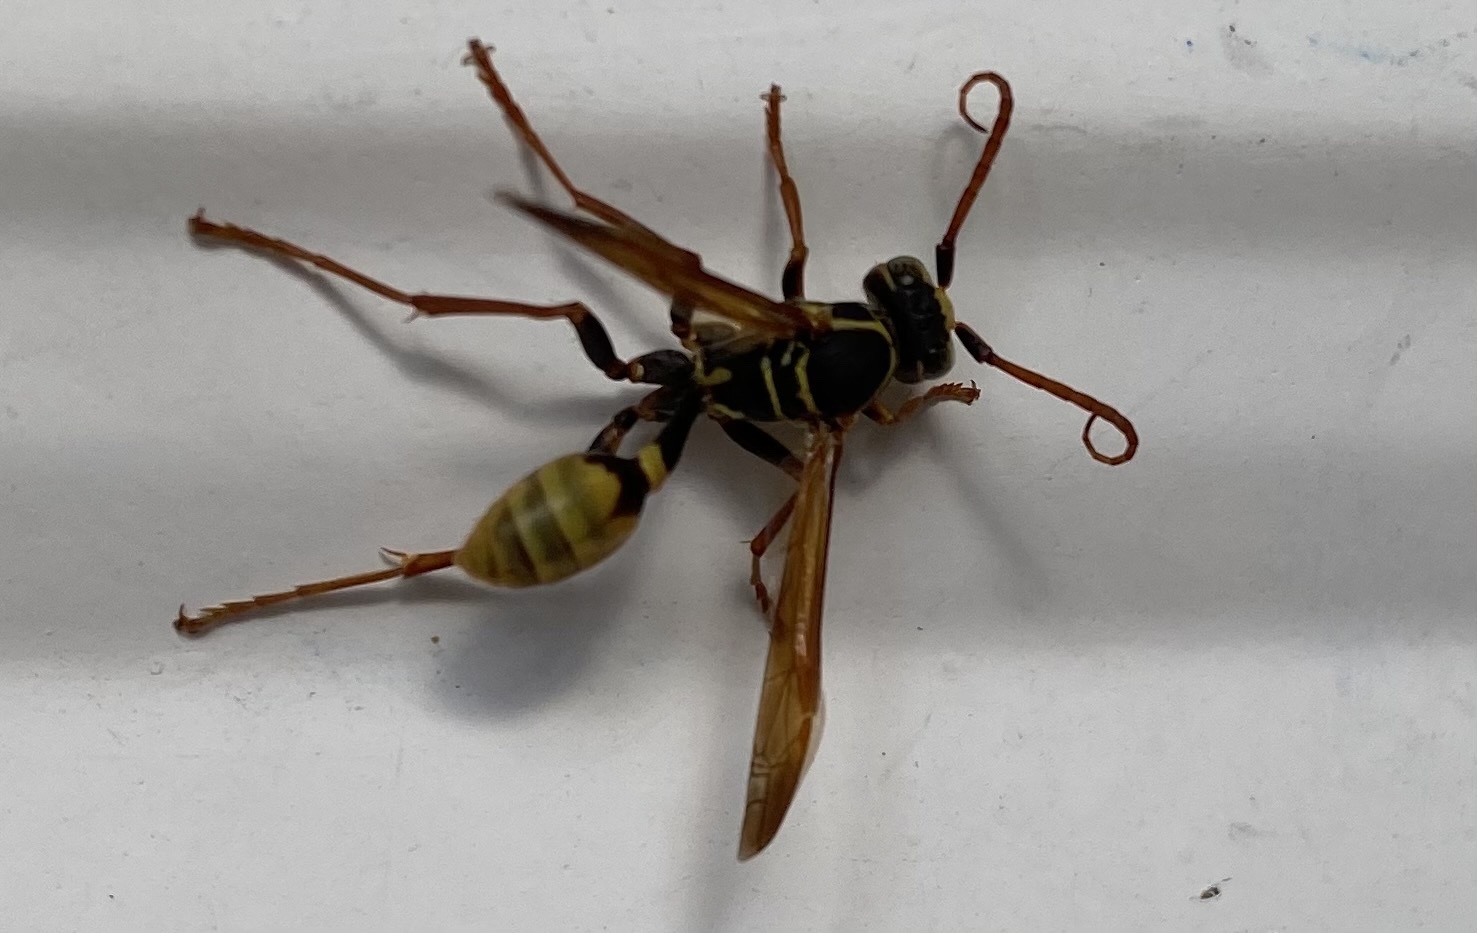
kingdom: Animalia
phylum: Arthropoda
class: Insecta
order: Hymenoptera
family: Vespidae
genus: Mischocyttarus
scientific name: Mischocyttarus flavitarsis
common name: Wasp
